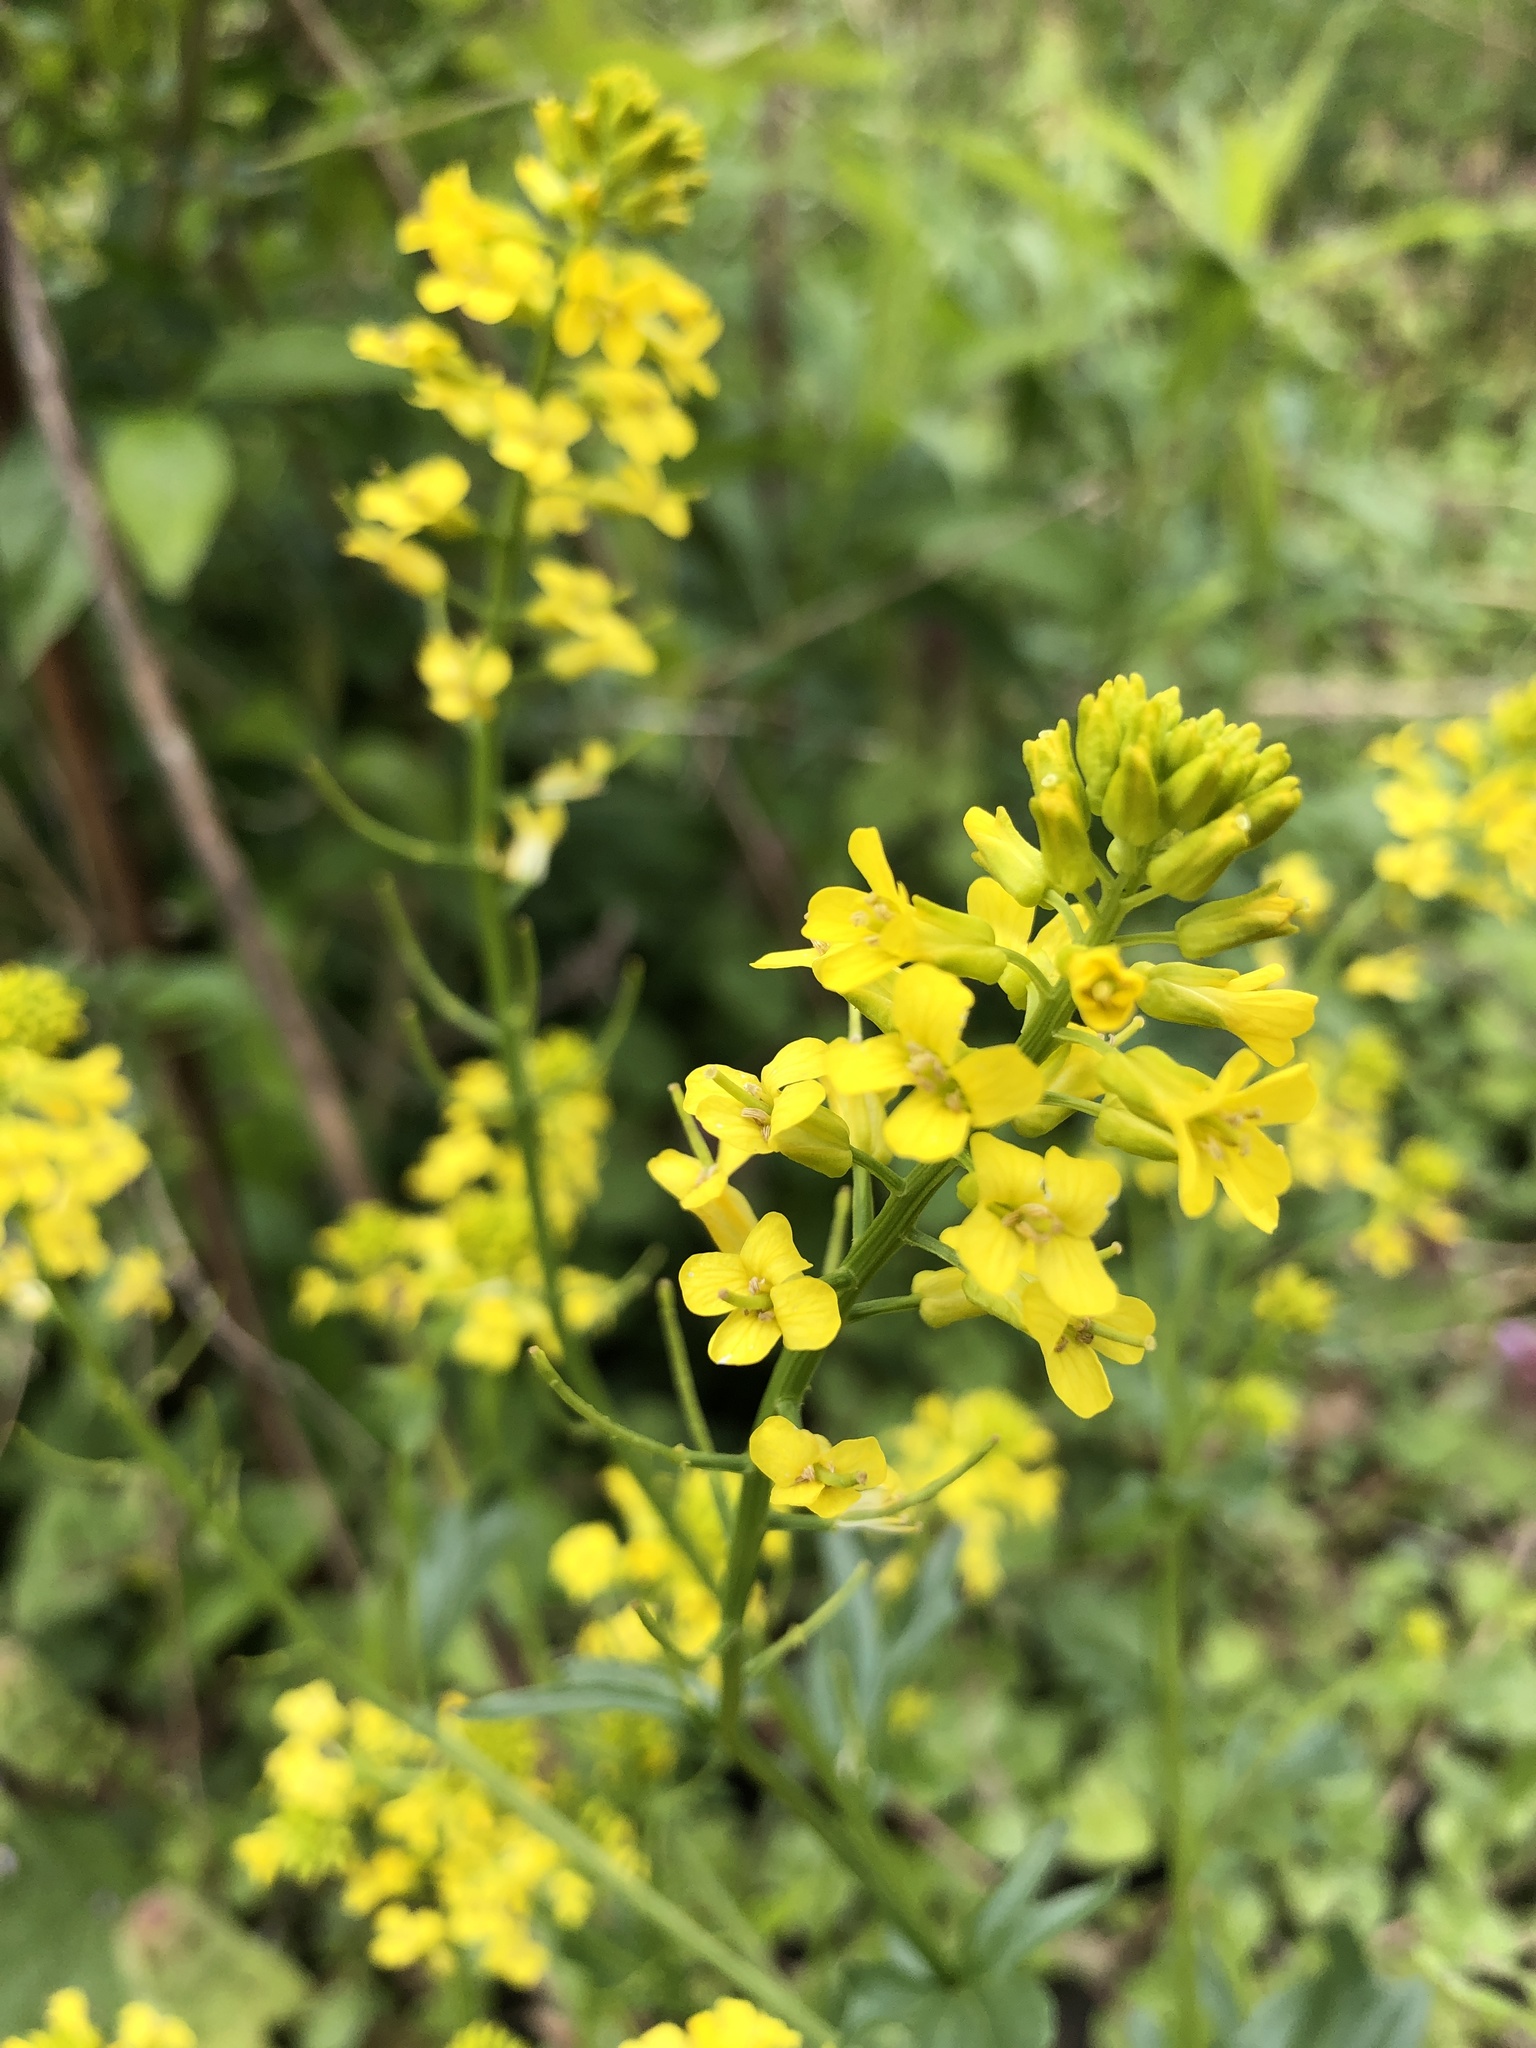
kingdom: Plantae
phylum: Tracheophyta
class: Magnoliopsida
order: Brassicales
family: Brassicaceae
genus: Barbarea
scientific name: Barbarea vulgaris
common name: Cressy-greens
